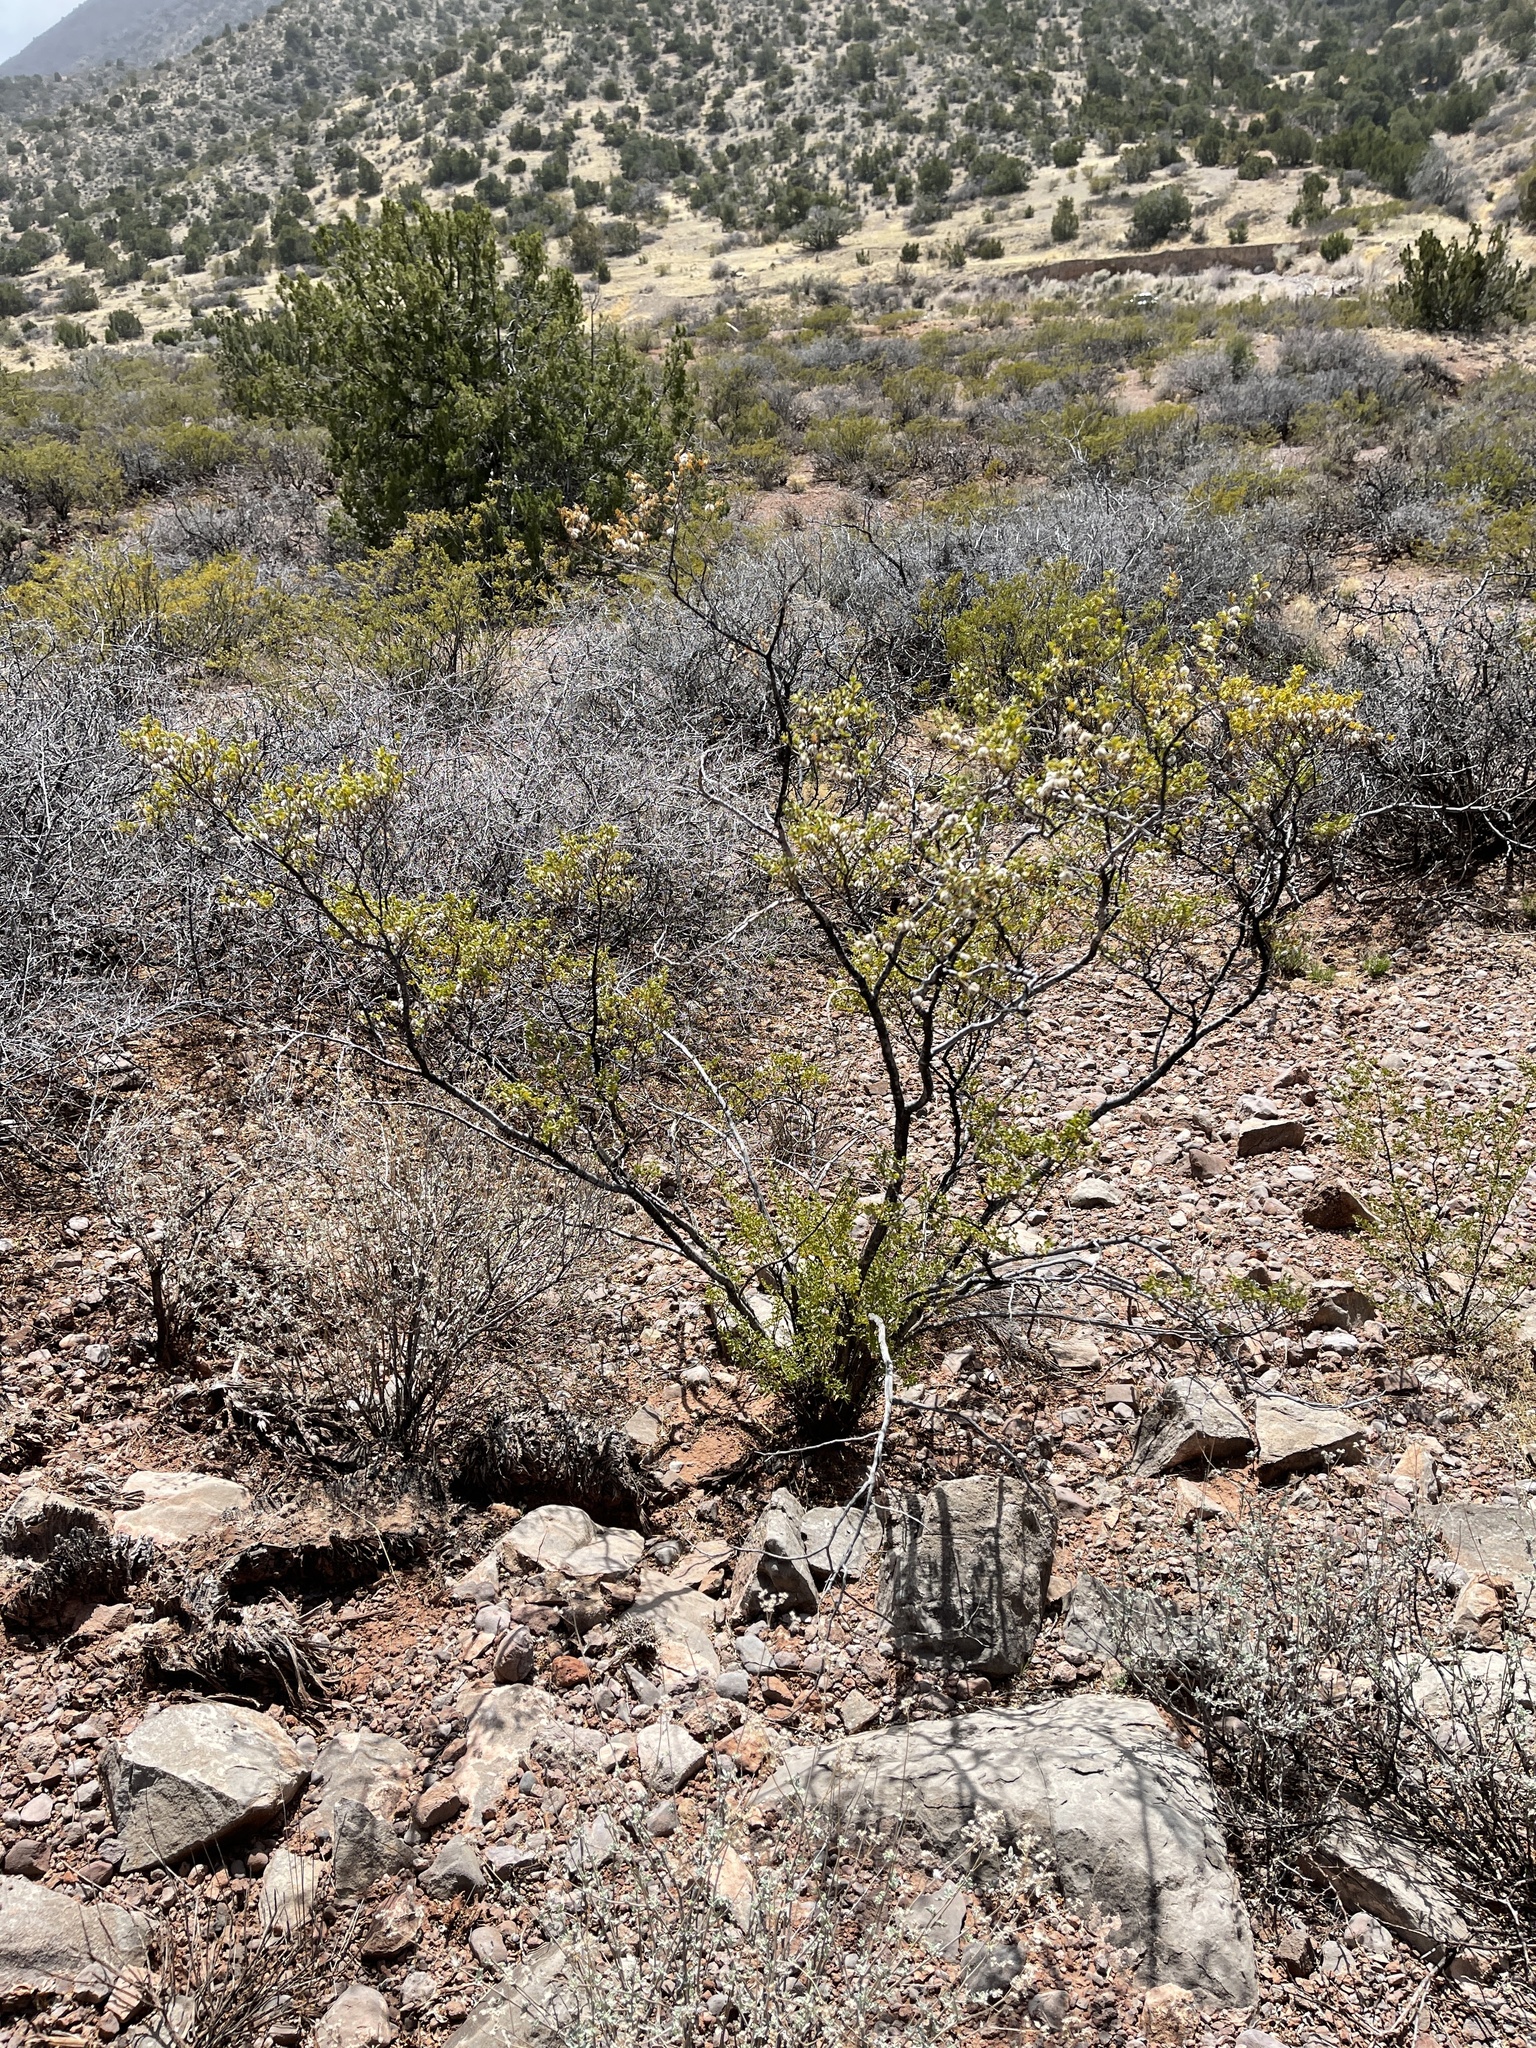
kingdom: Plantae
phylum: Tracheophyta
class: Magnoliopsida
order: Zygophyllales
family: Zygophyllaceae
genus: Larrea
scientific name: Larrea tridentata
